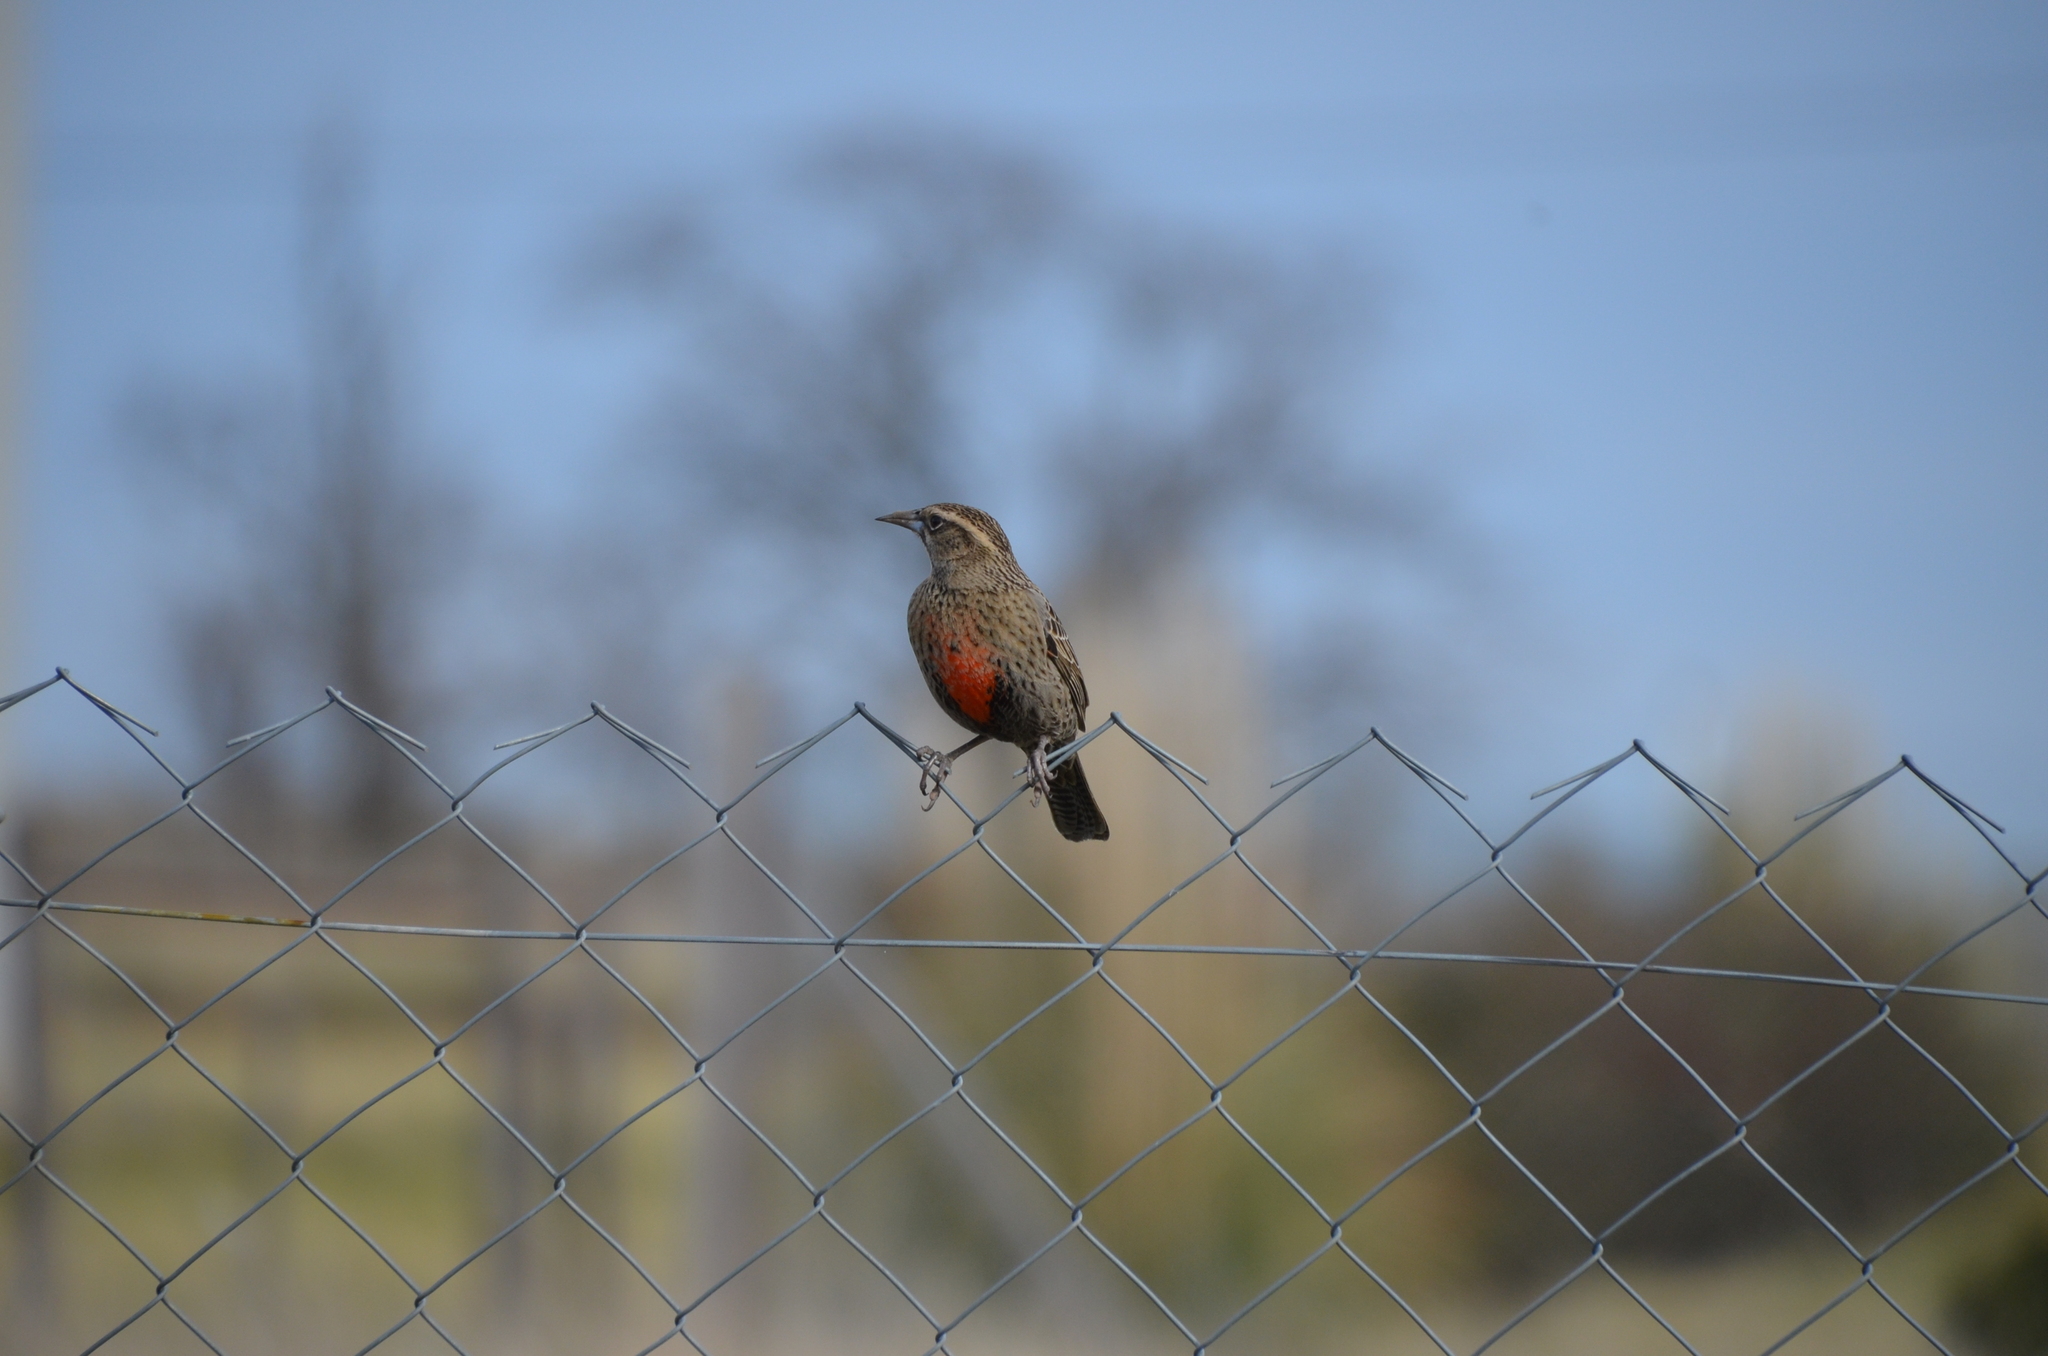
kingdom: Animalia
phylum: Chordata
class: Aves
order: Passeriformes
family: Icteridae
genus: Sturnella
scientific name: Sturnella loyca
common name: Long-tailed meadowlark
